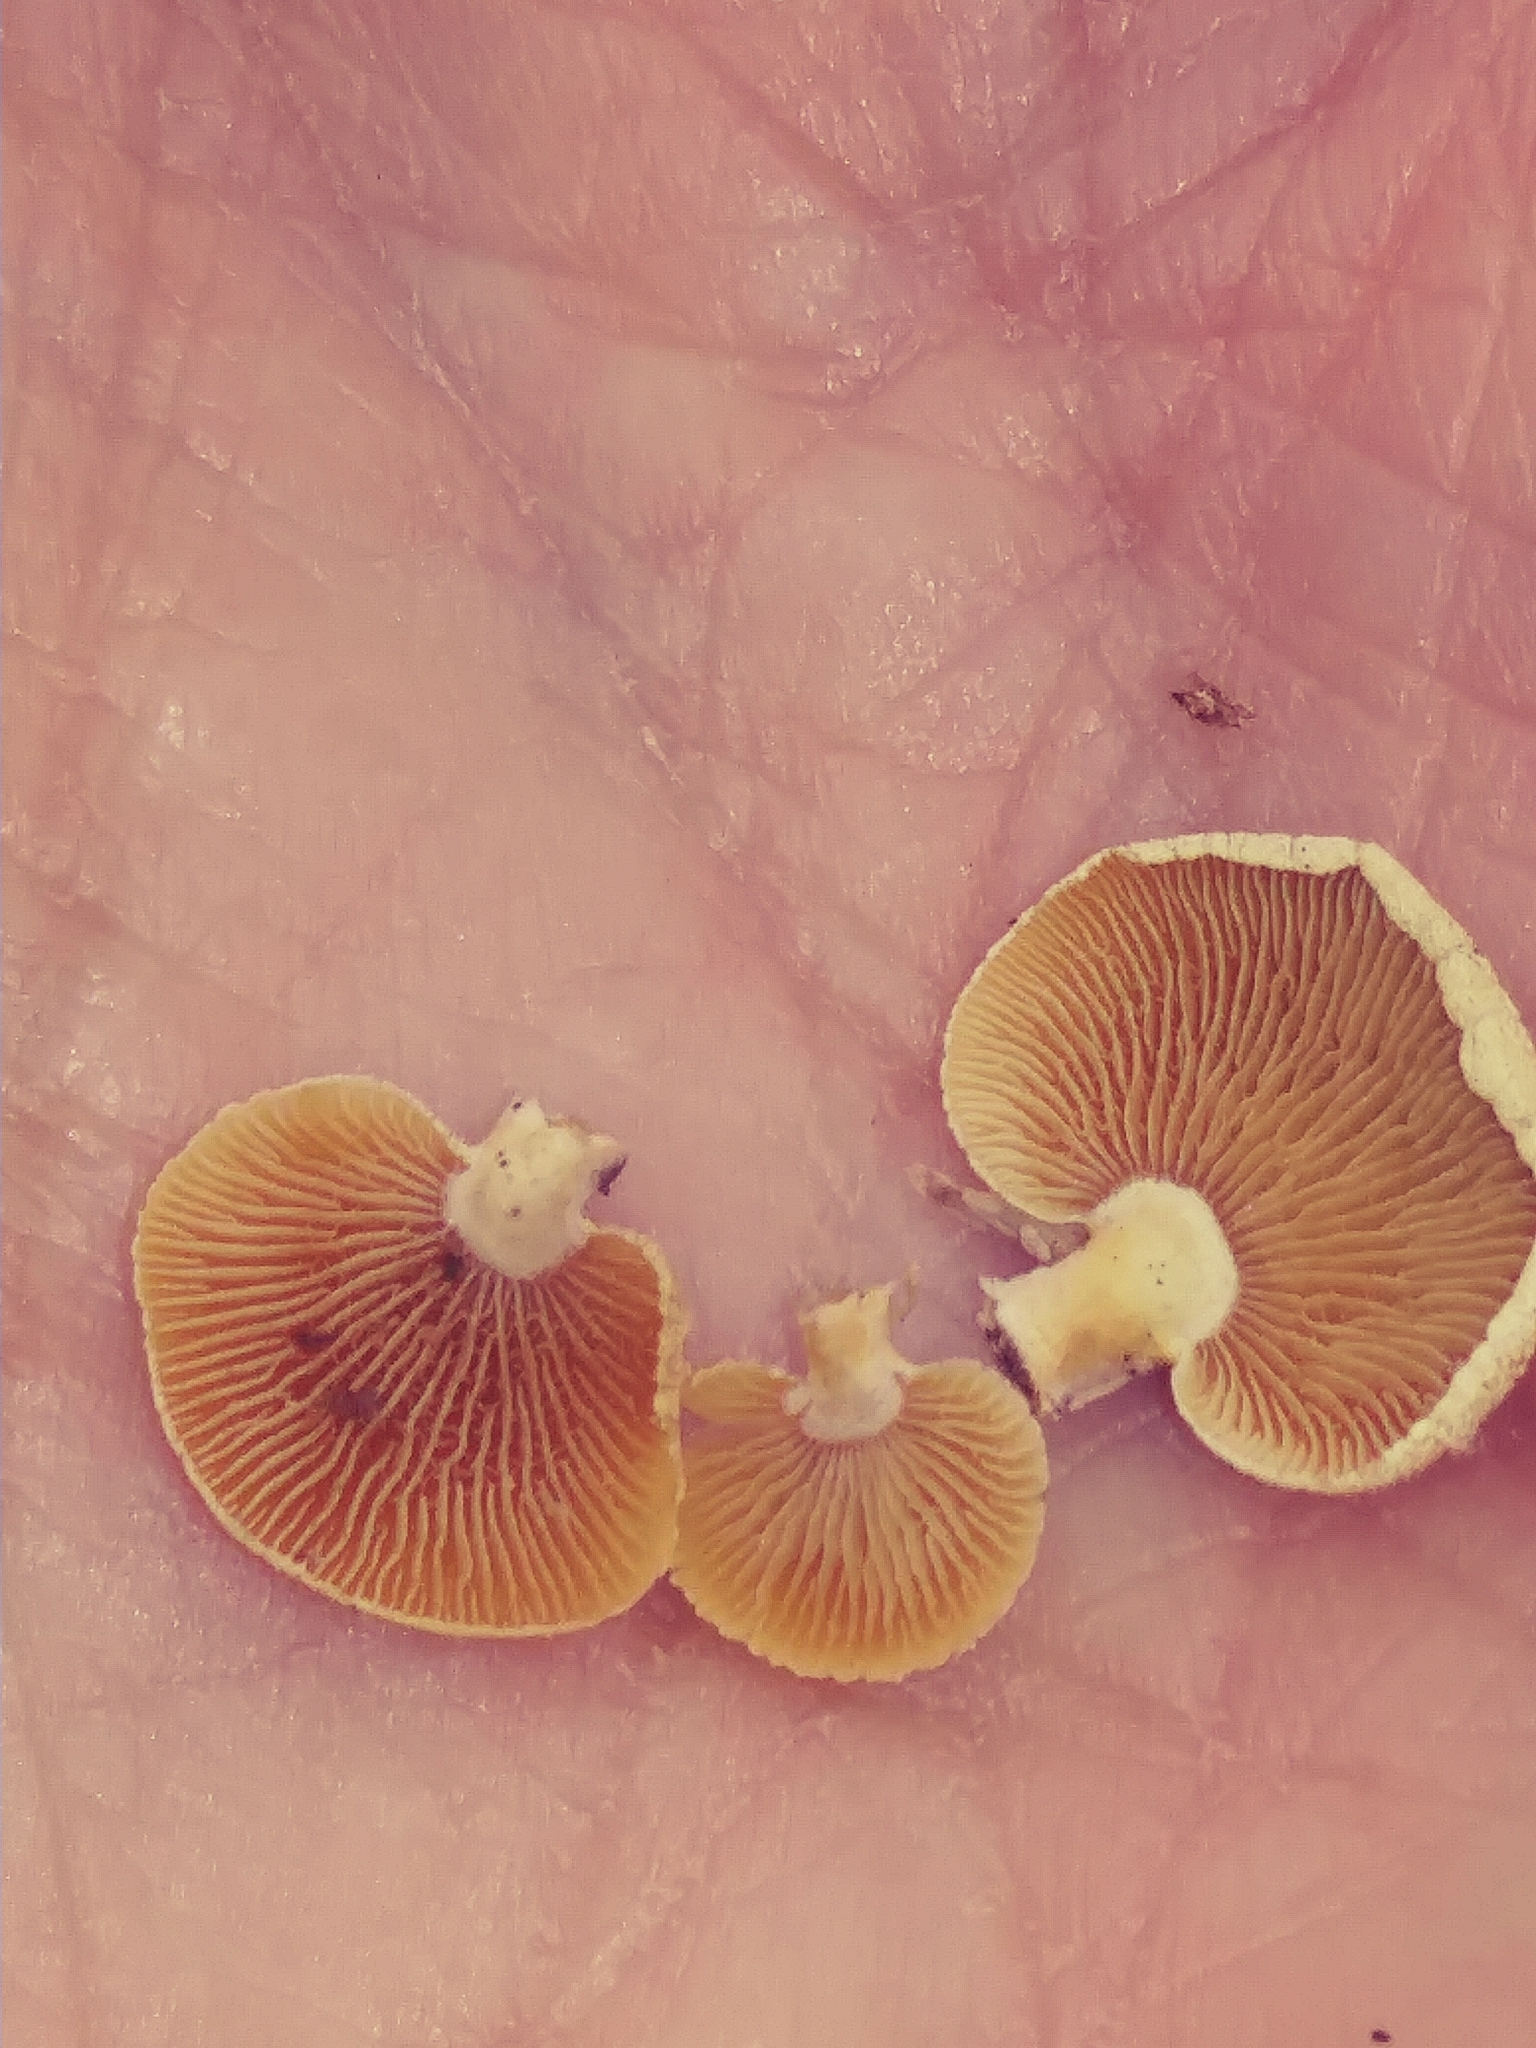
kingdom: Fungi
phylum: Basidiomycota
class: Agaricomycetes
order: Agaricales
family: Mycenaceae
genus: Panellus
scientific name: Panellus stipticus
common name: Bitter oysterling
